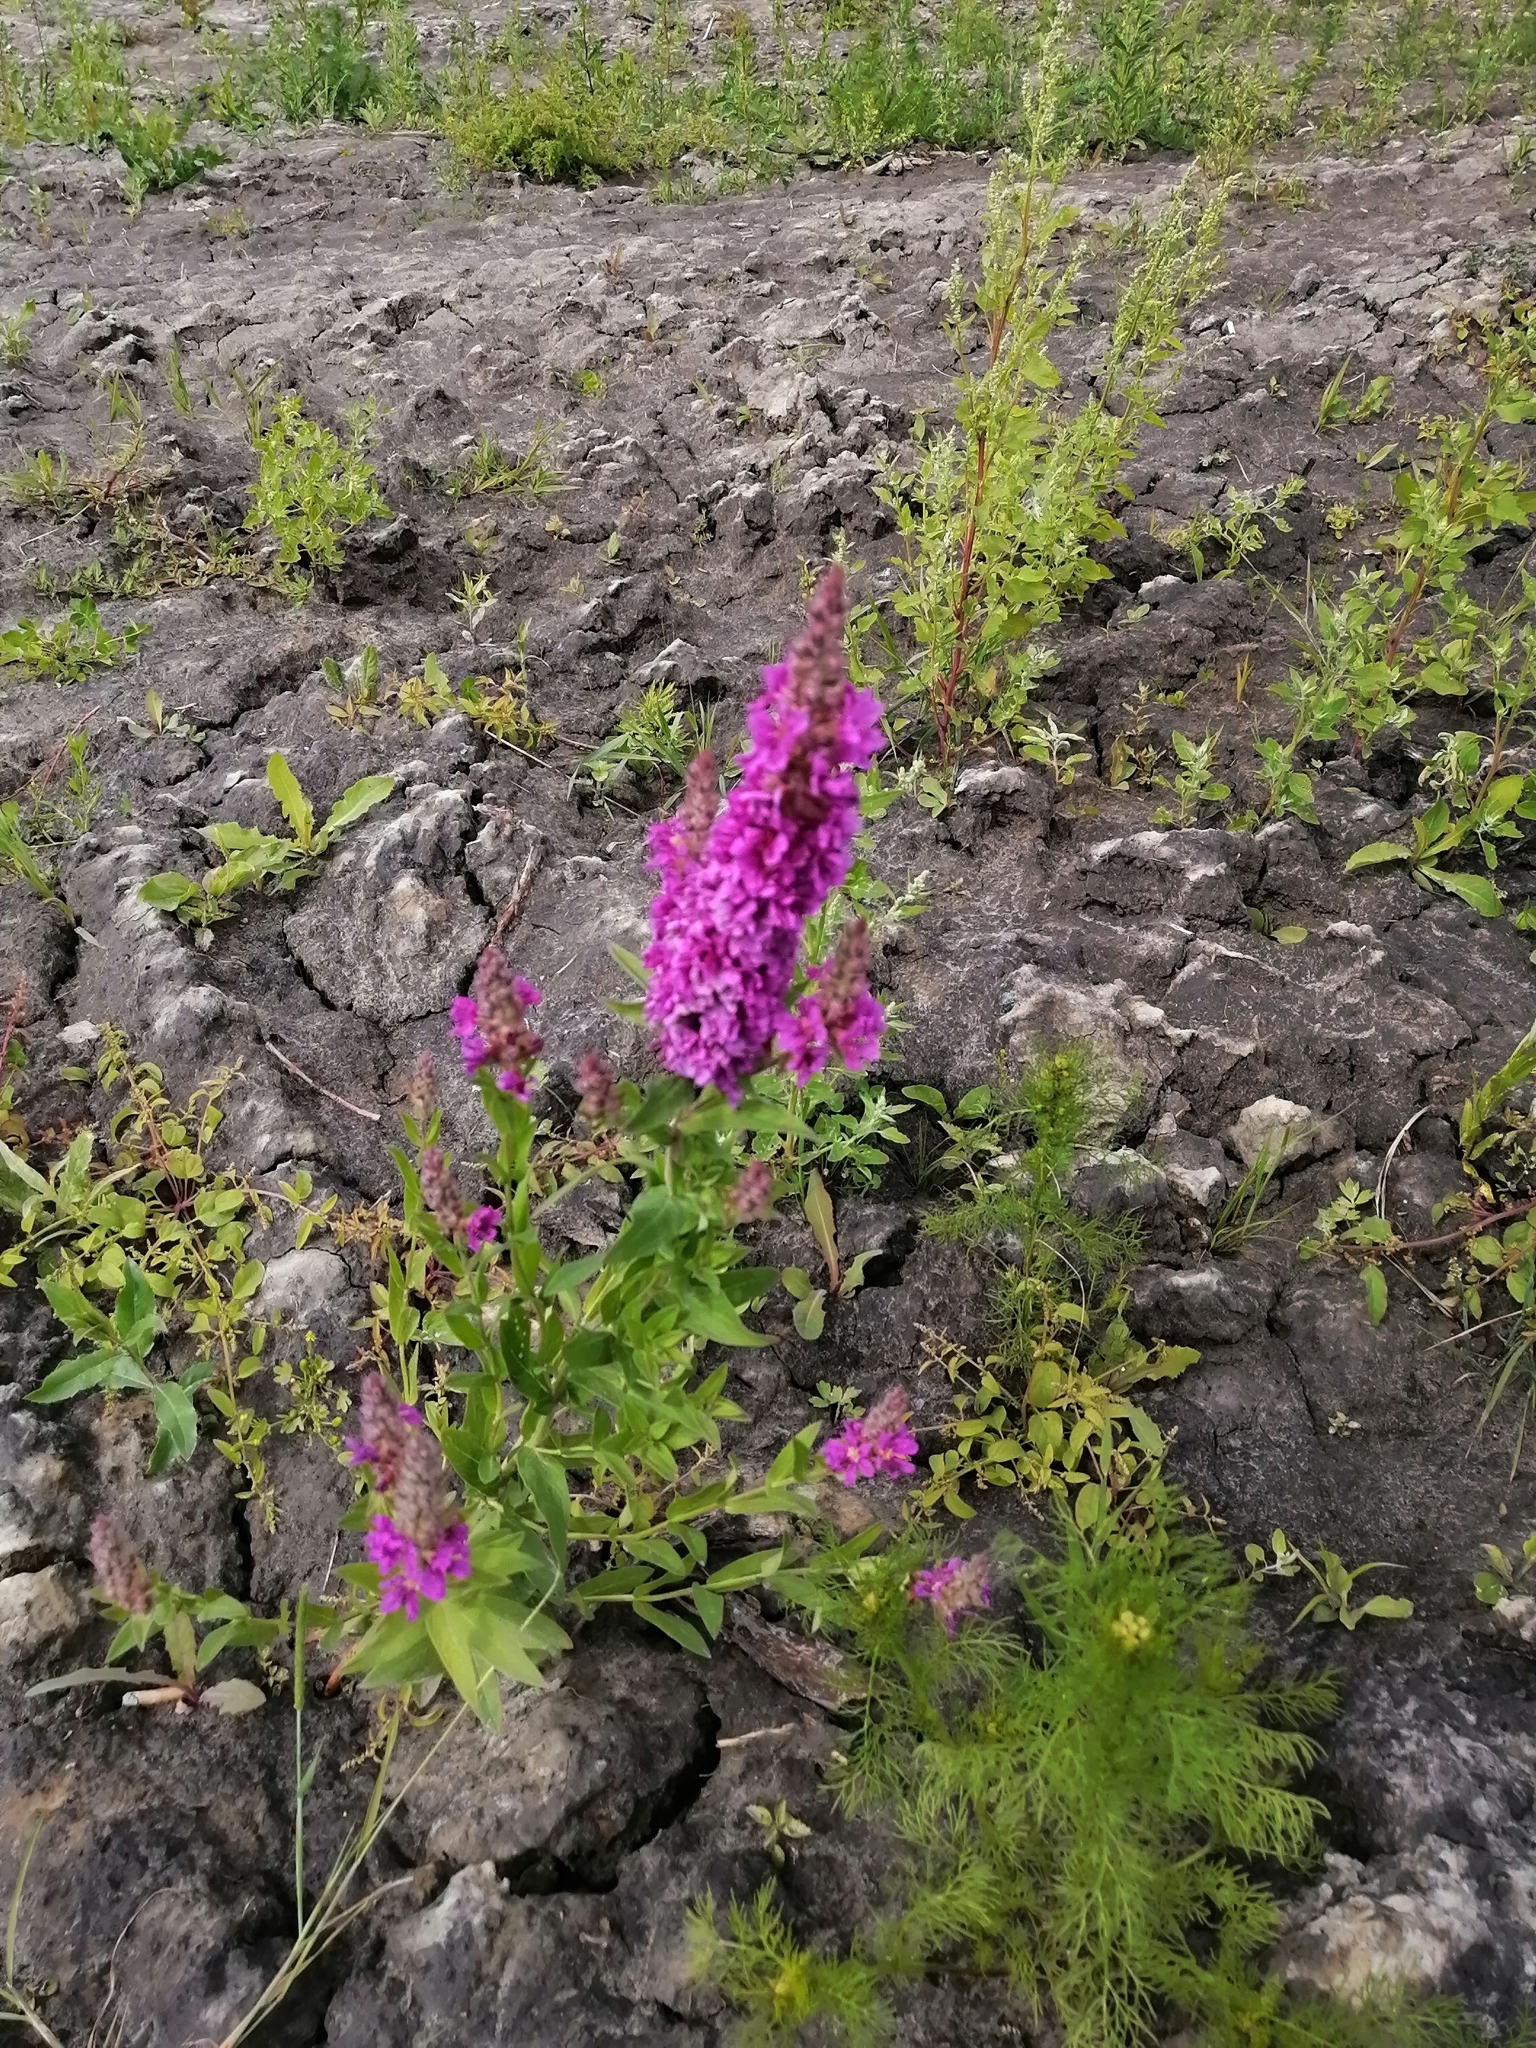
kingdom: Plantae
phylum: Tracheophyta
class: Magnoliopsida
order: Myrtales
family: Lythraceae
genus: Lythrum
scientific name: Lythrum salicaria
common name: Purple loosestrife
